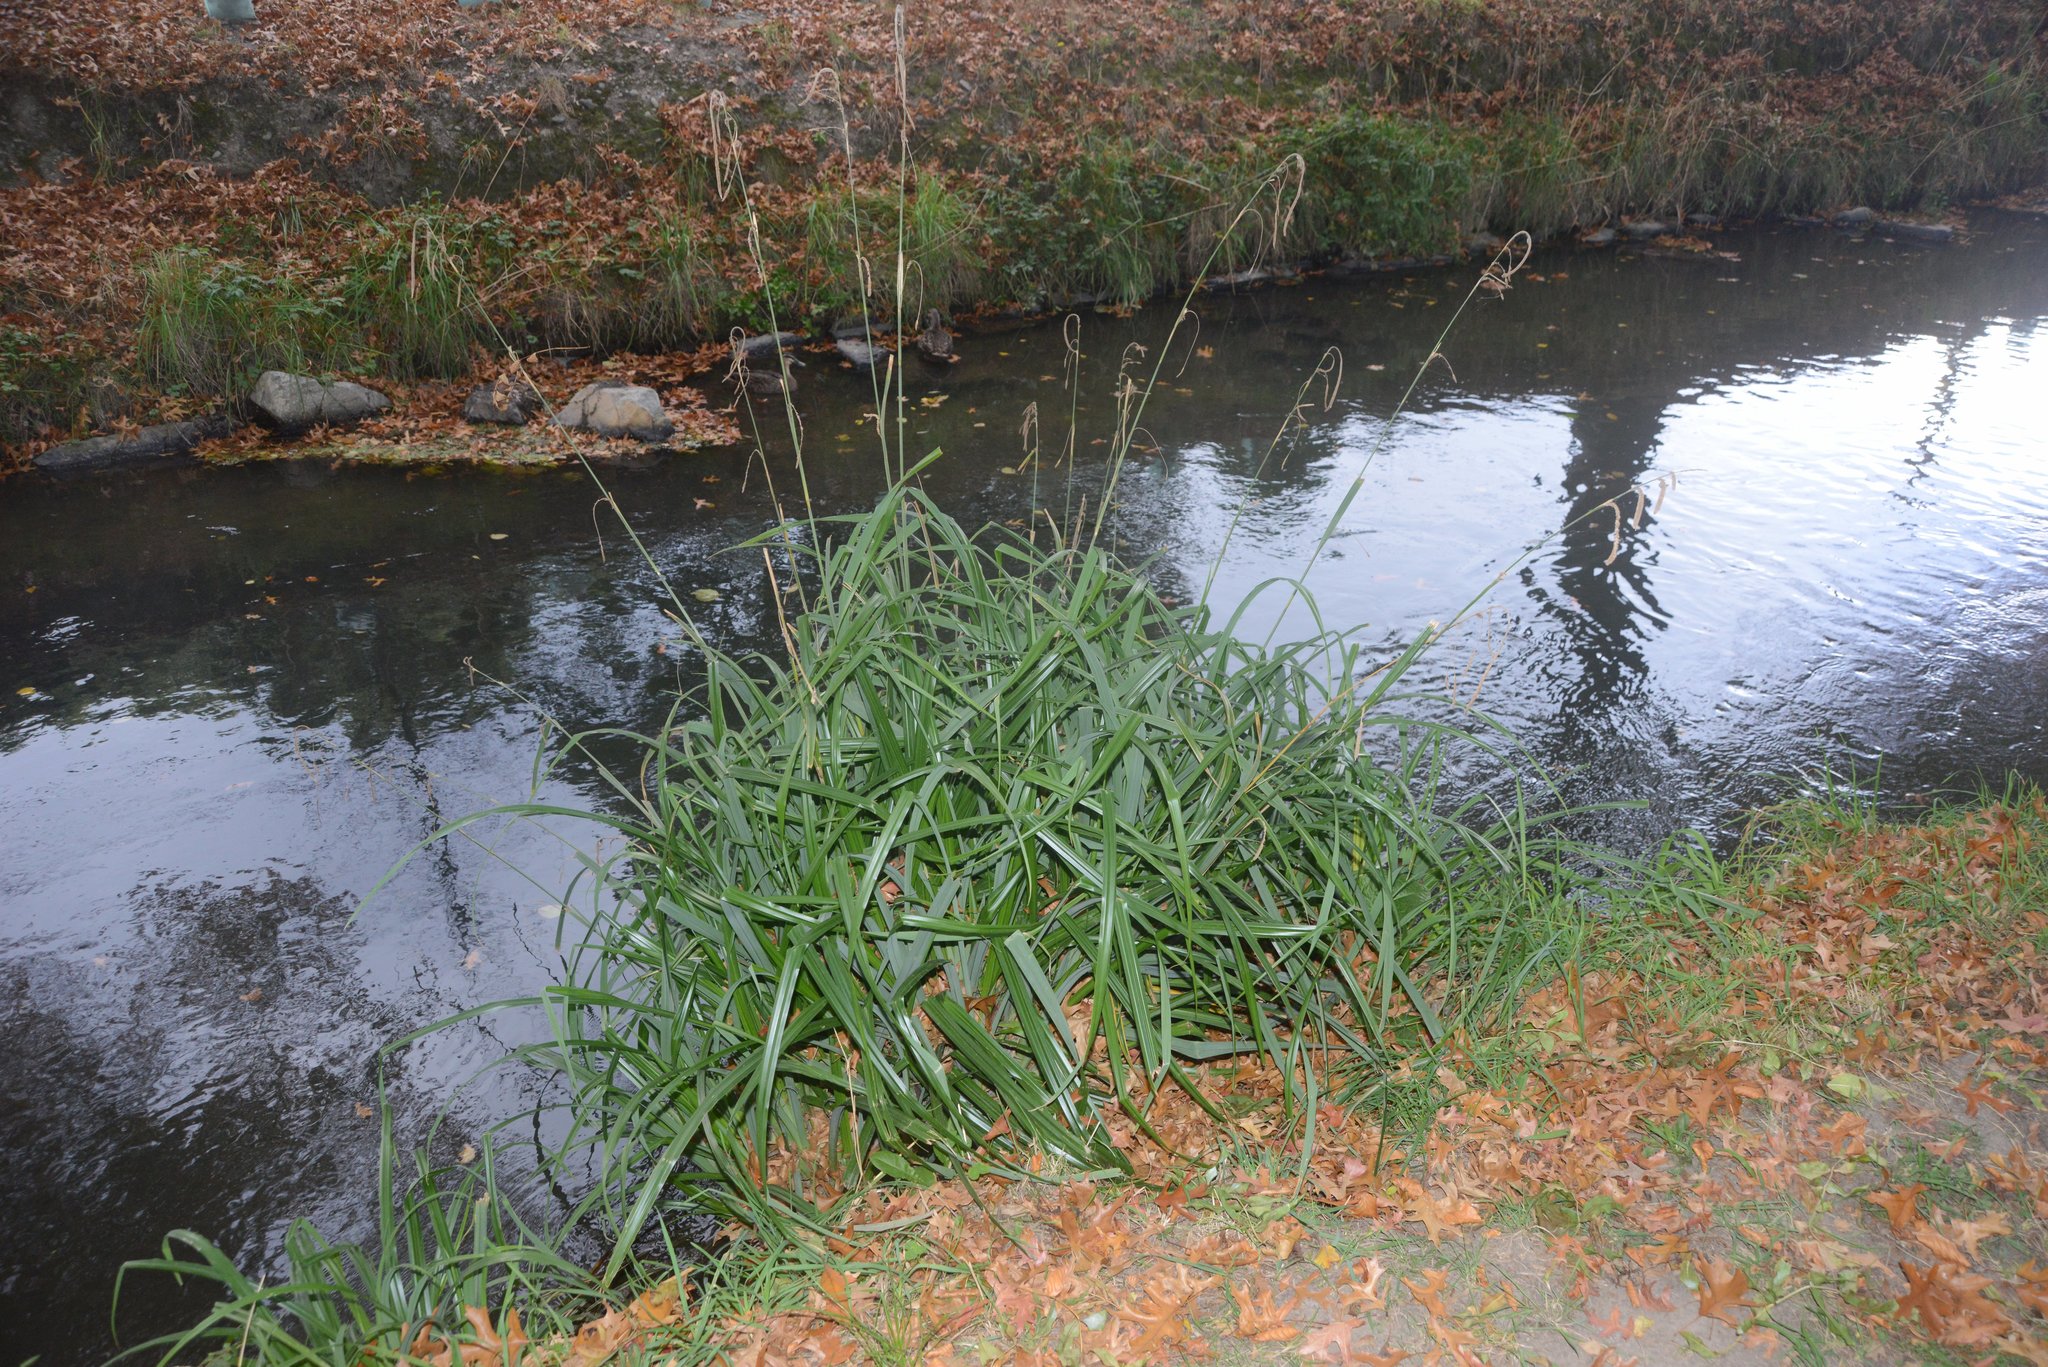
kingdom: Plantae
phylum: Tracheophyta
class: Liliopsida
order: Poales
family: Cyperaceae
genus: Carex
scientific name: Carex pendula
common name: Pendulous sedge
